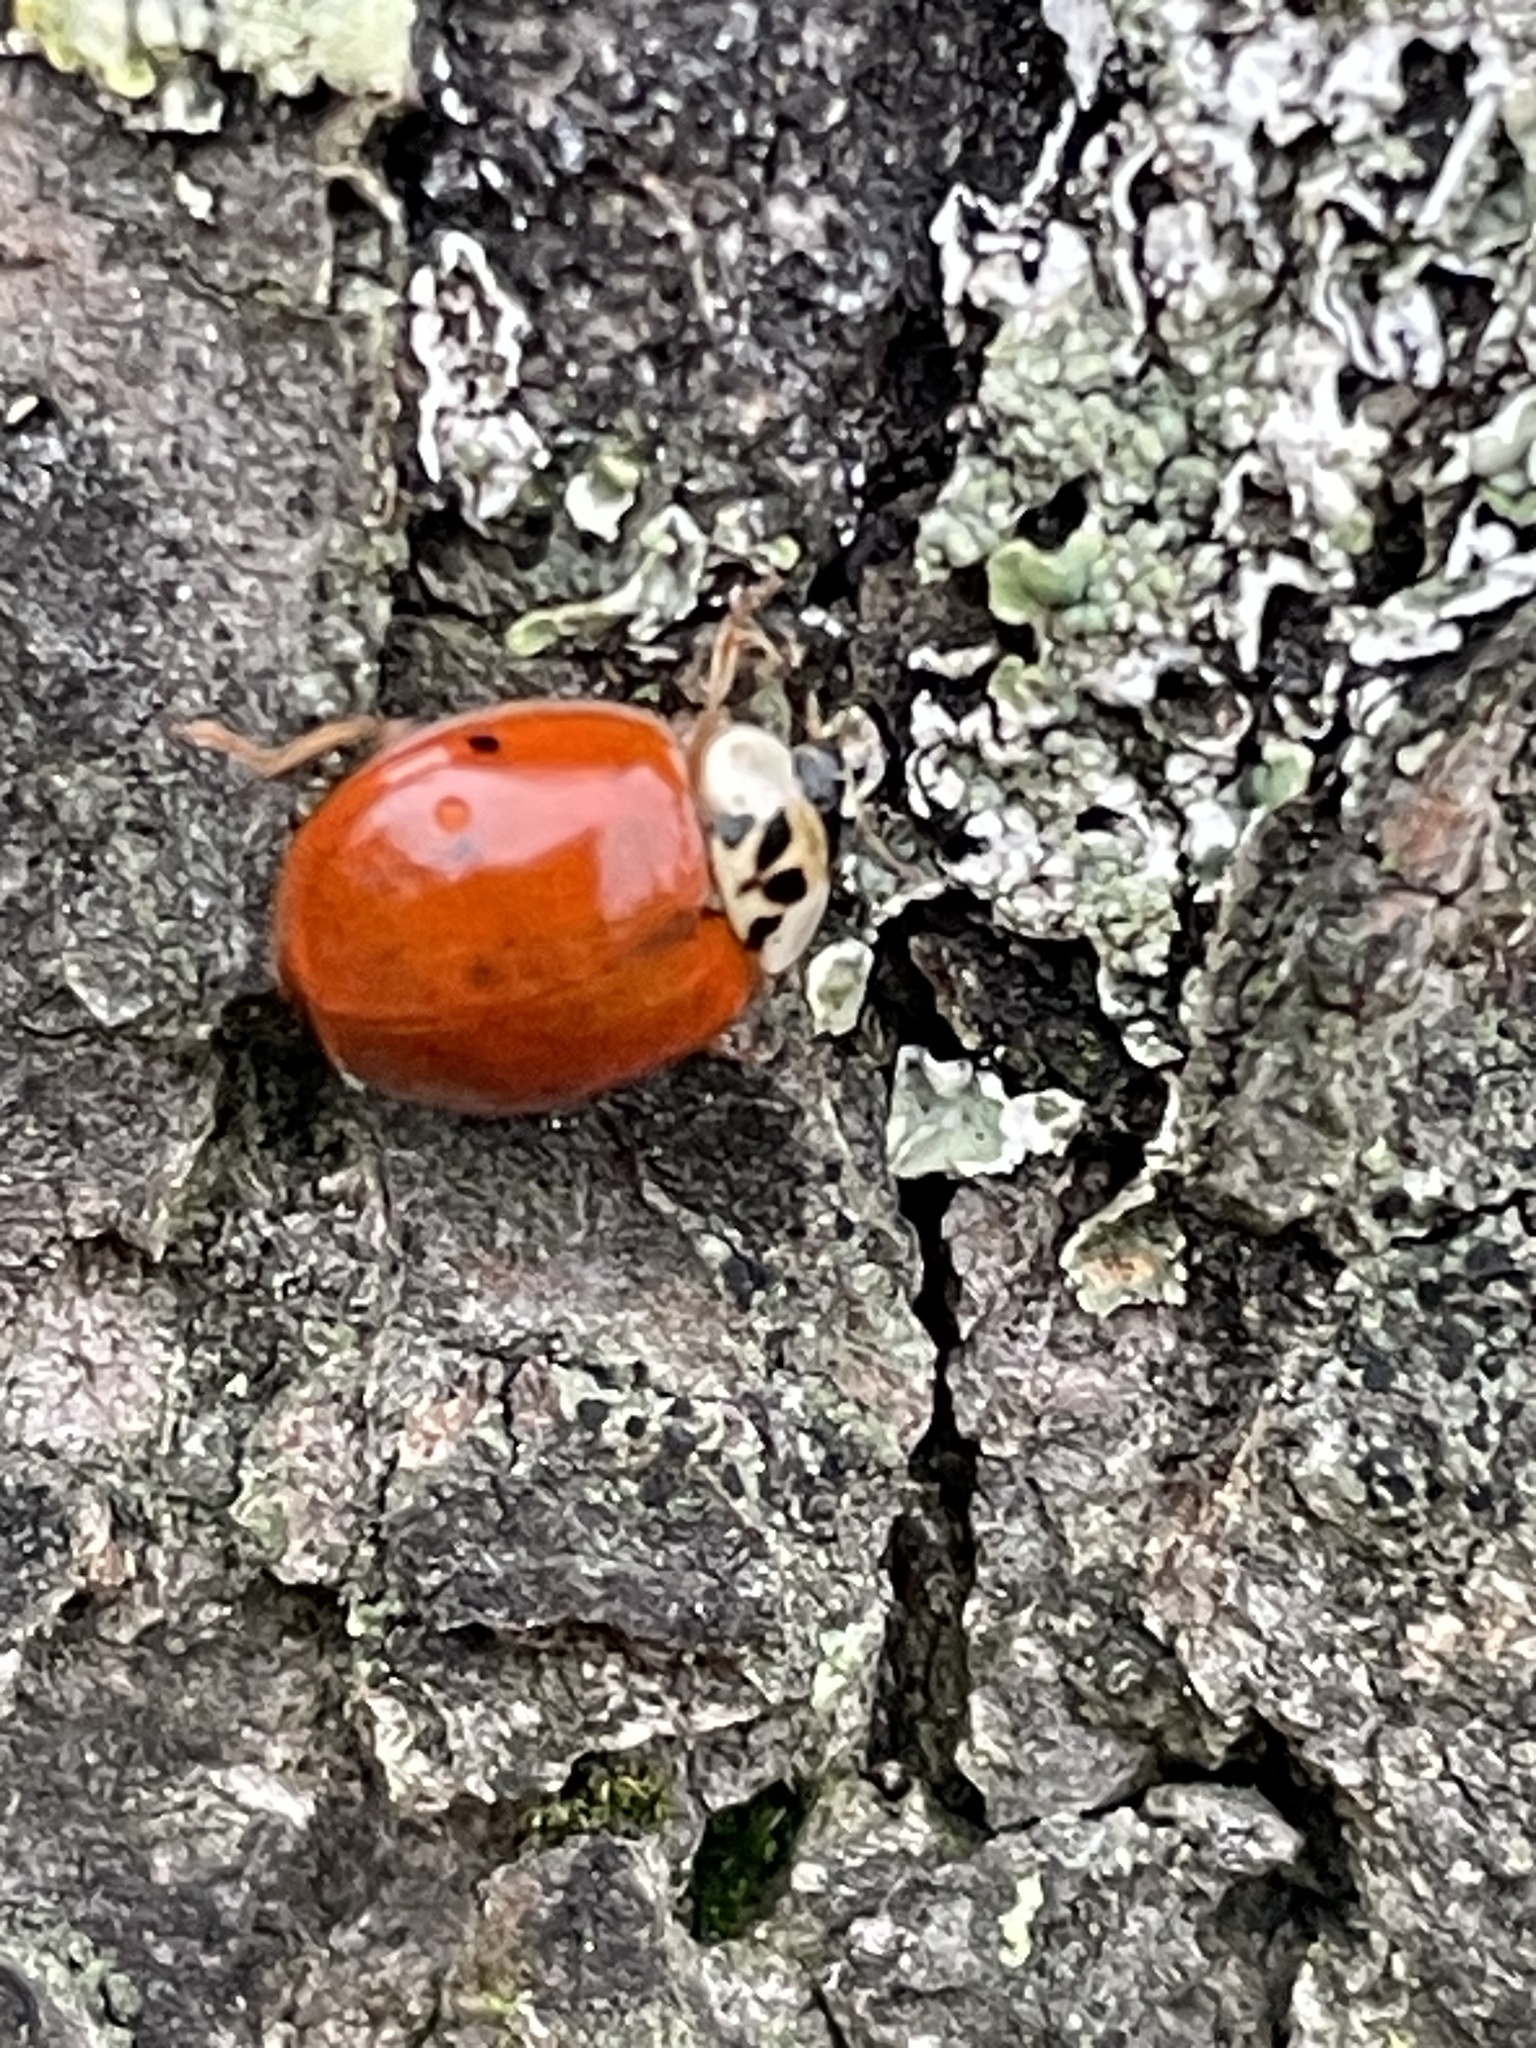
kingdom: Animalia
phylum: Arthropoda
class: Insecta
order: Coleoptera
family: Coccinellidae
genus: Harmonia
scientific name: Harmonia axyridis
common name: Harlequin ladybird
